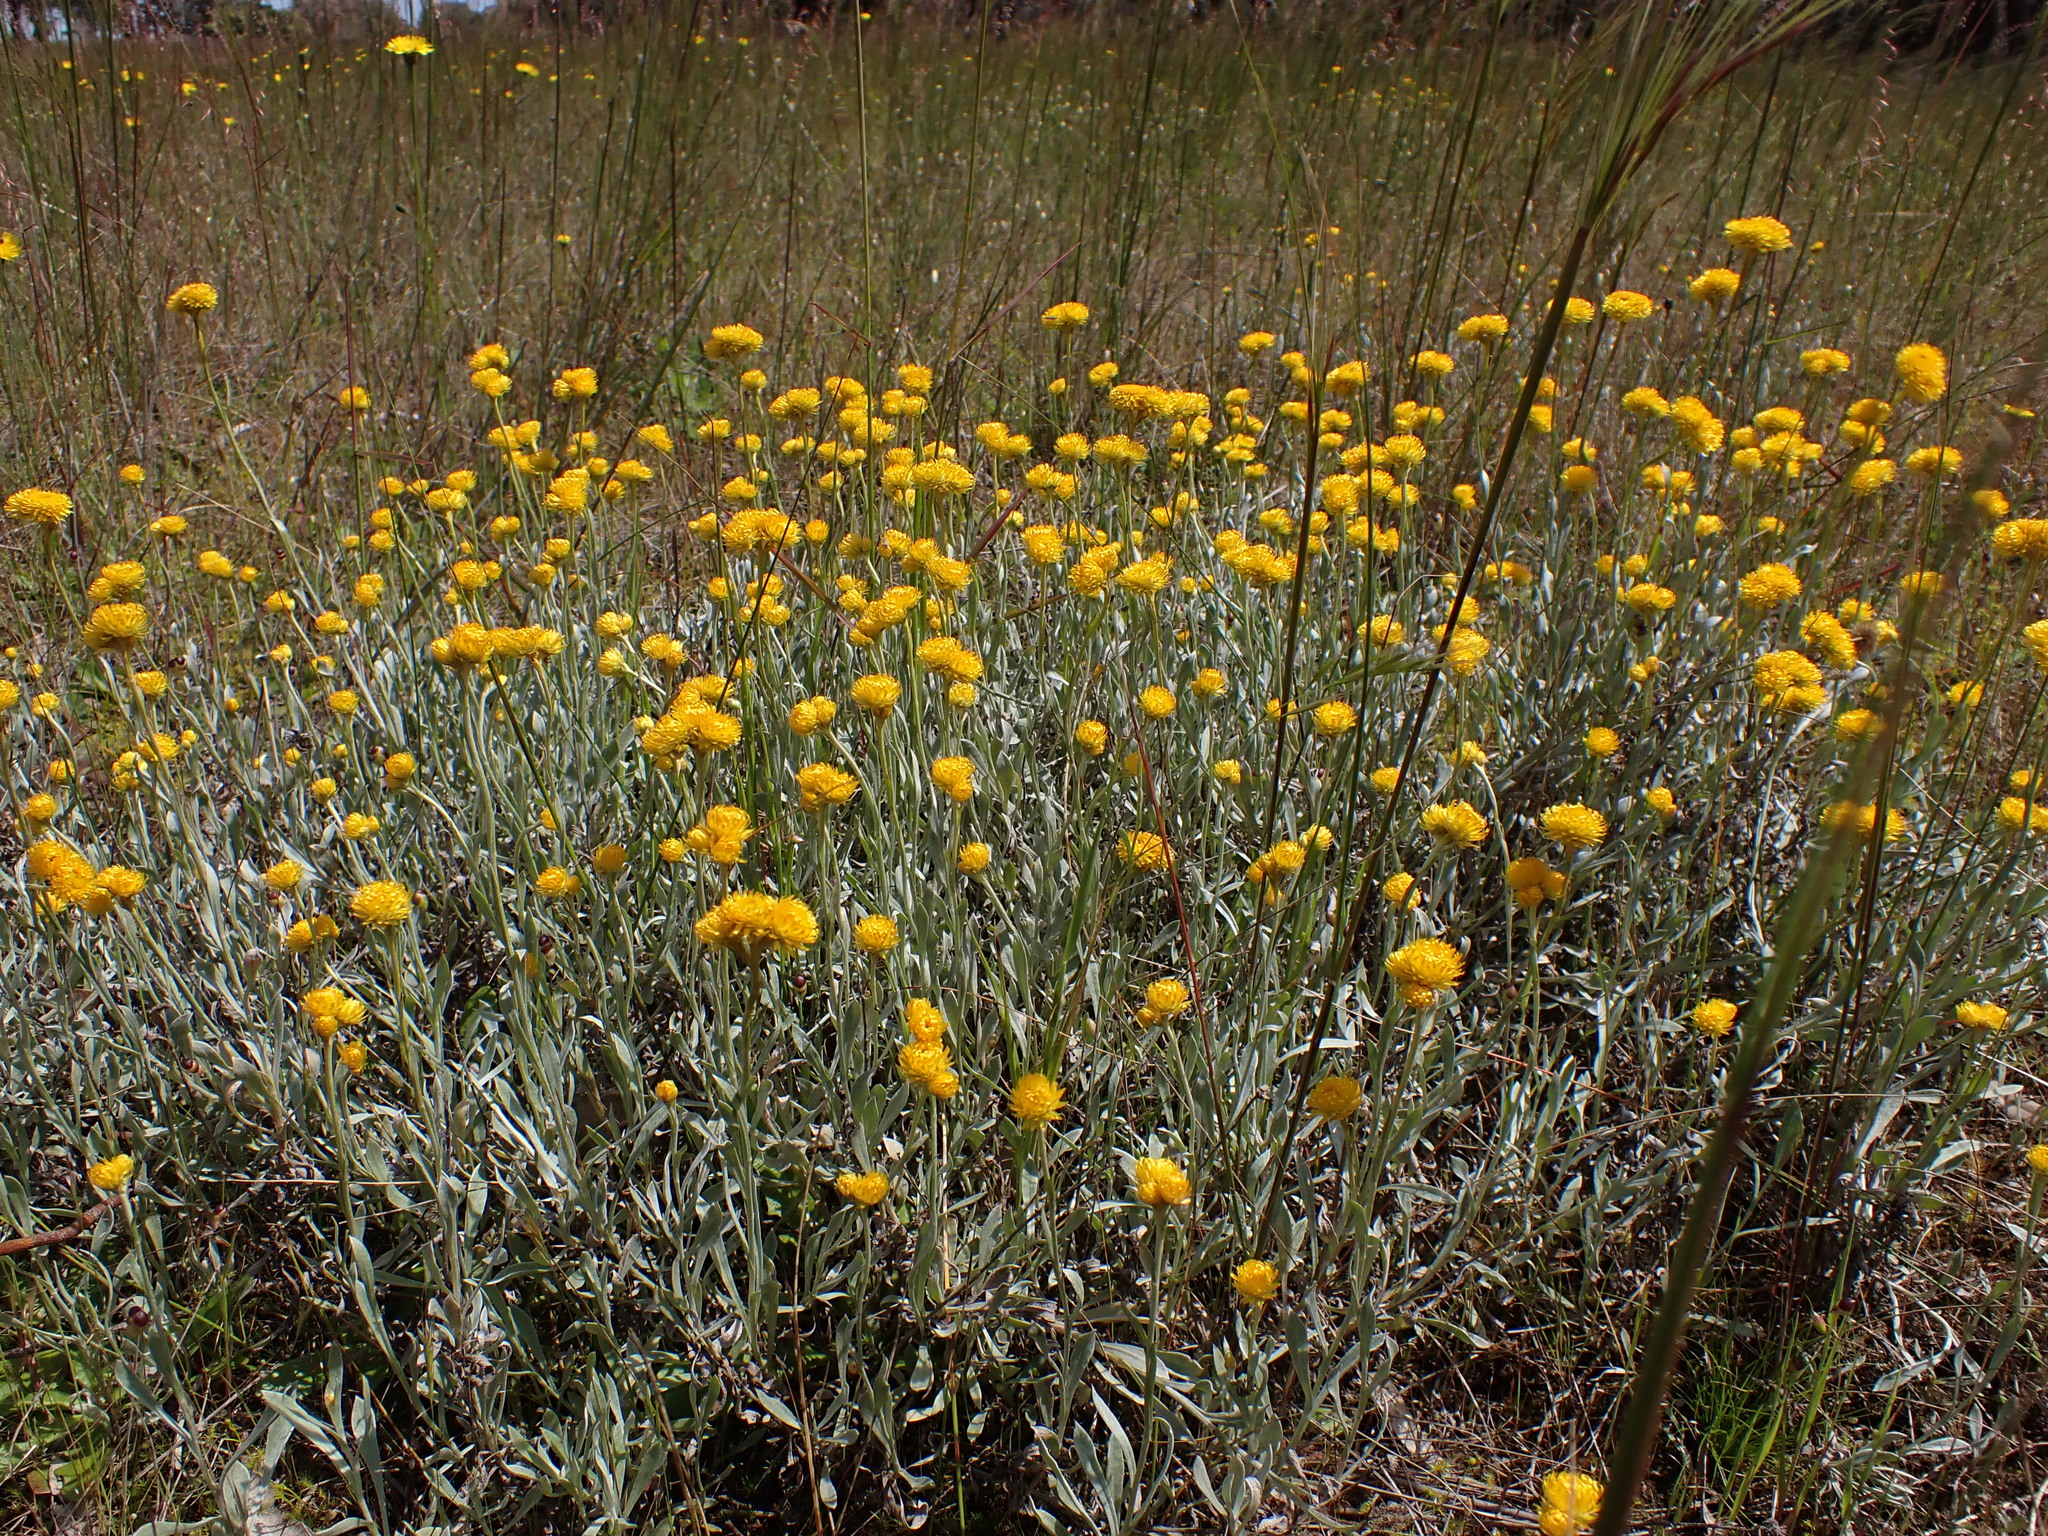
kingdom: Plantae
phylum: Tracheophyta
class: Magnoliopsida
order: Asterales
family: Asteraceae
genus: Chrysocephalum
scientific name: Chrysocephalum apiculatum
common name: Common everlasting
